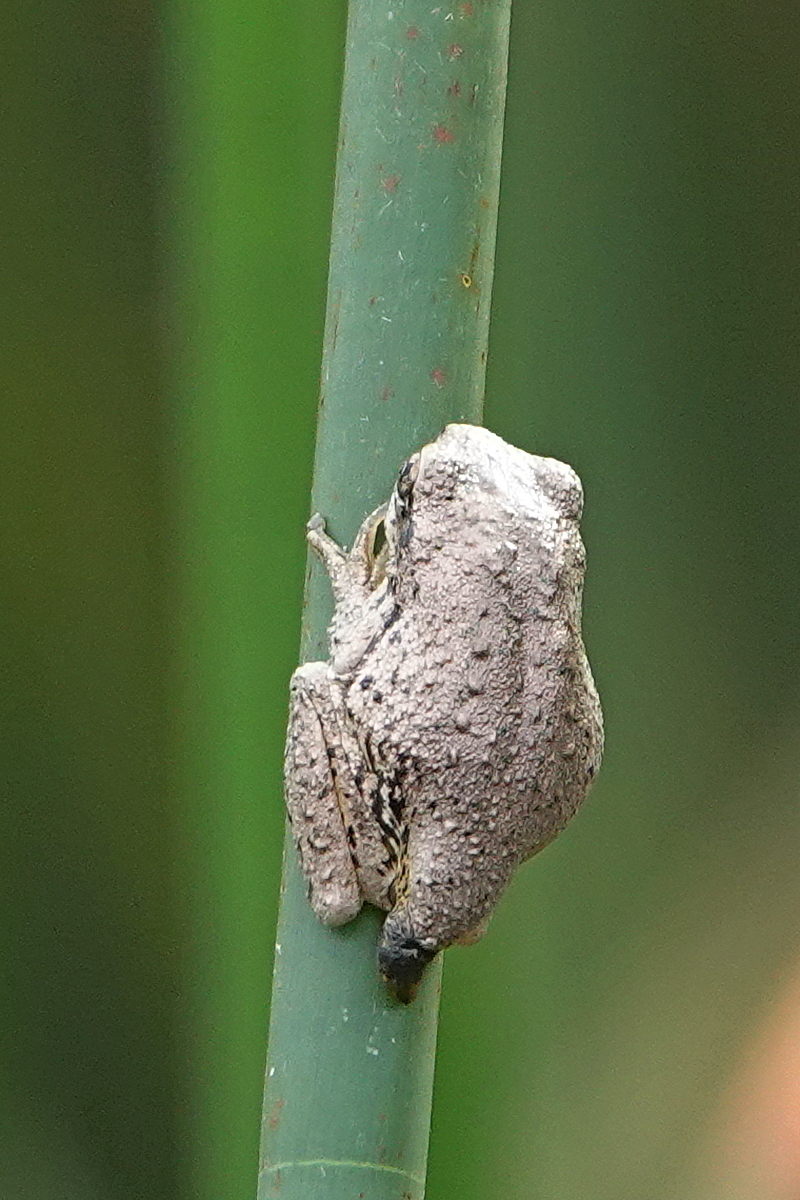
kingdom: Animalia
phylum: Chordata
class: Amphibia
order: Anura
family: Pelodryadidae
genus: Litoria
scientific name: Litoria peronii
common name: Emerald spotted treefrog
